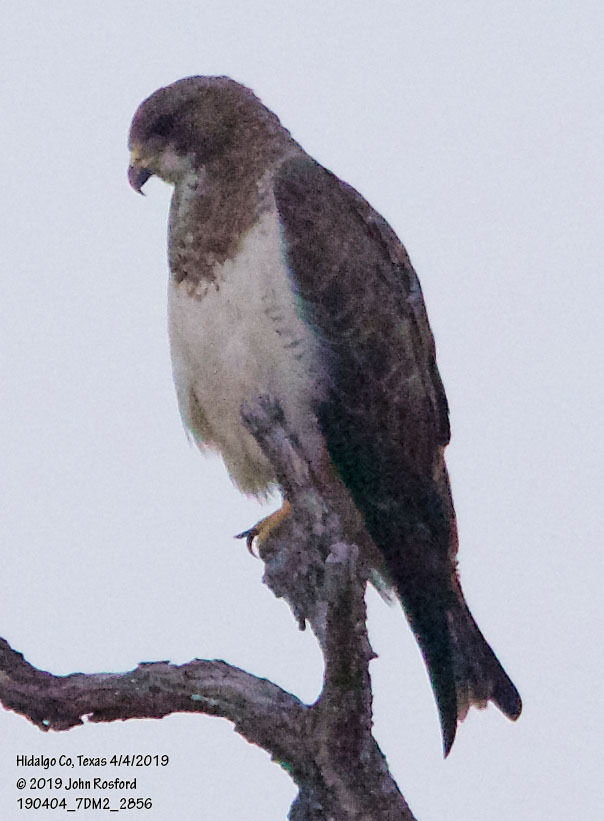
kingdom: Animalia
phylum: Chordata
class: Aves
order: Accipitriformes
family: Accipitridae
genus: Buteo
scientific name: Buteo swainsoni
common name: Swainson's hawk
